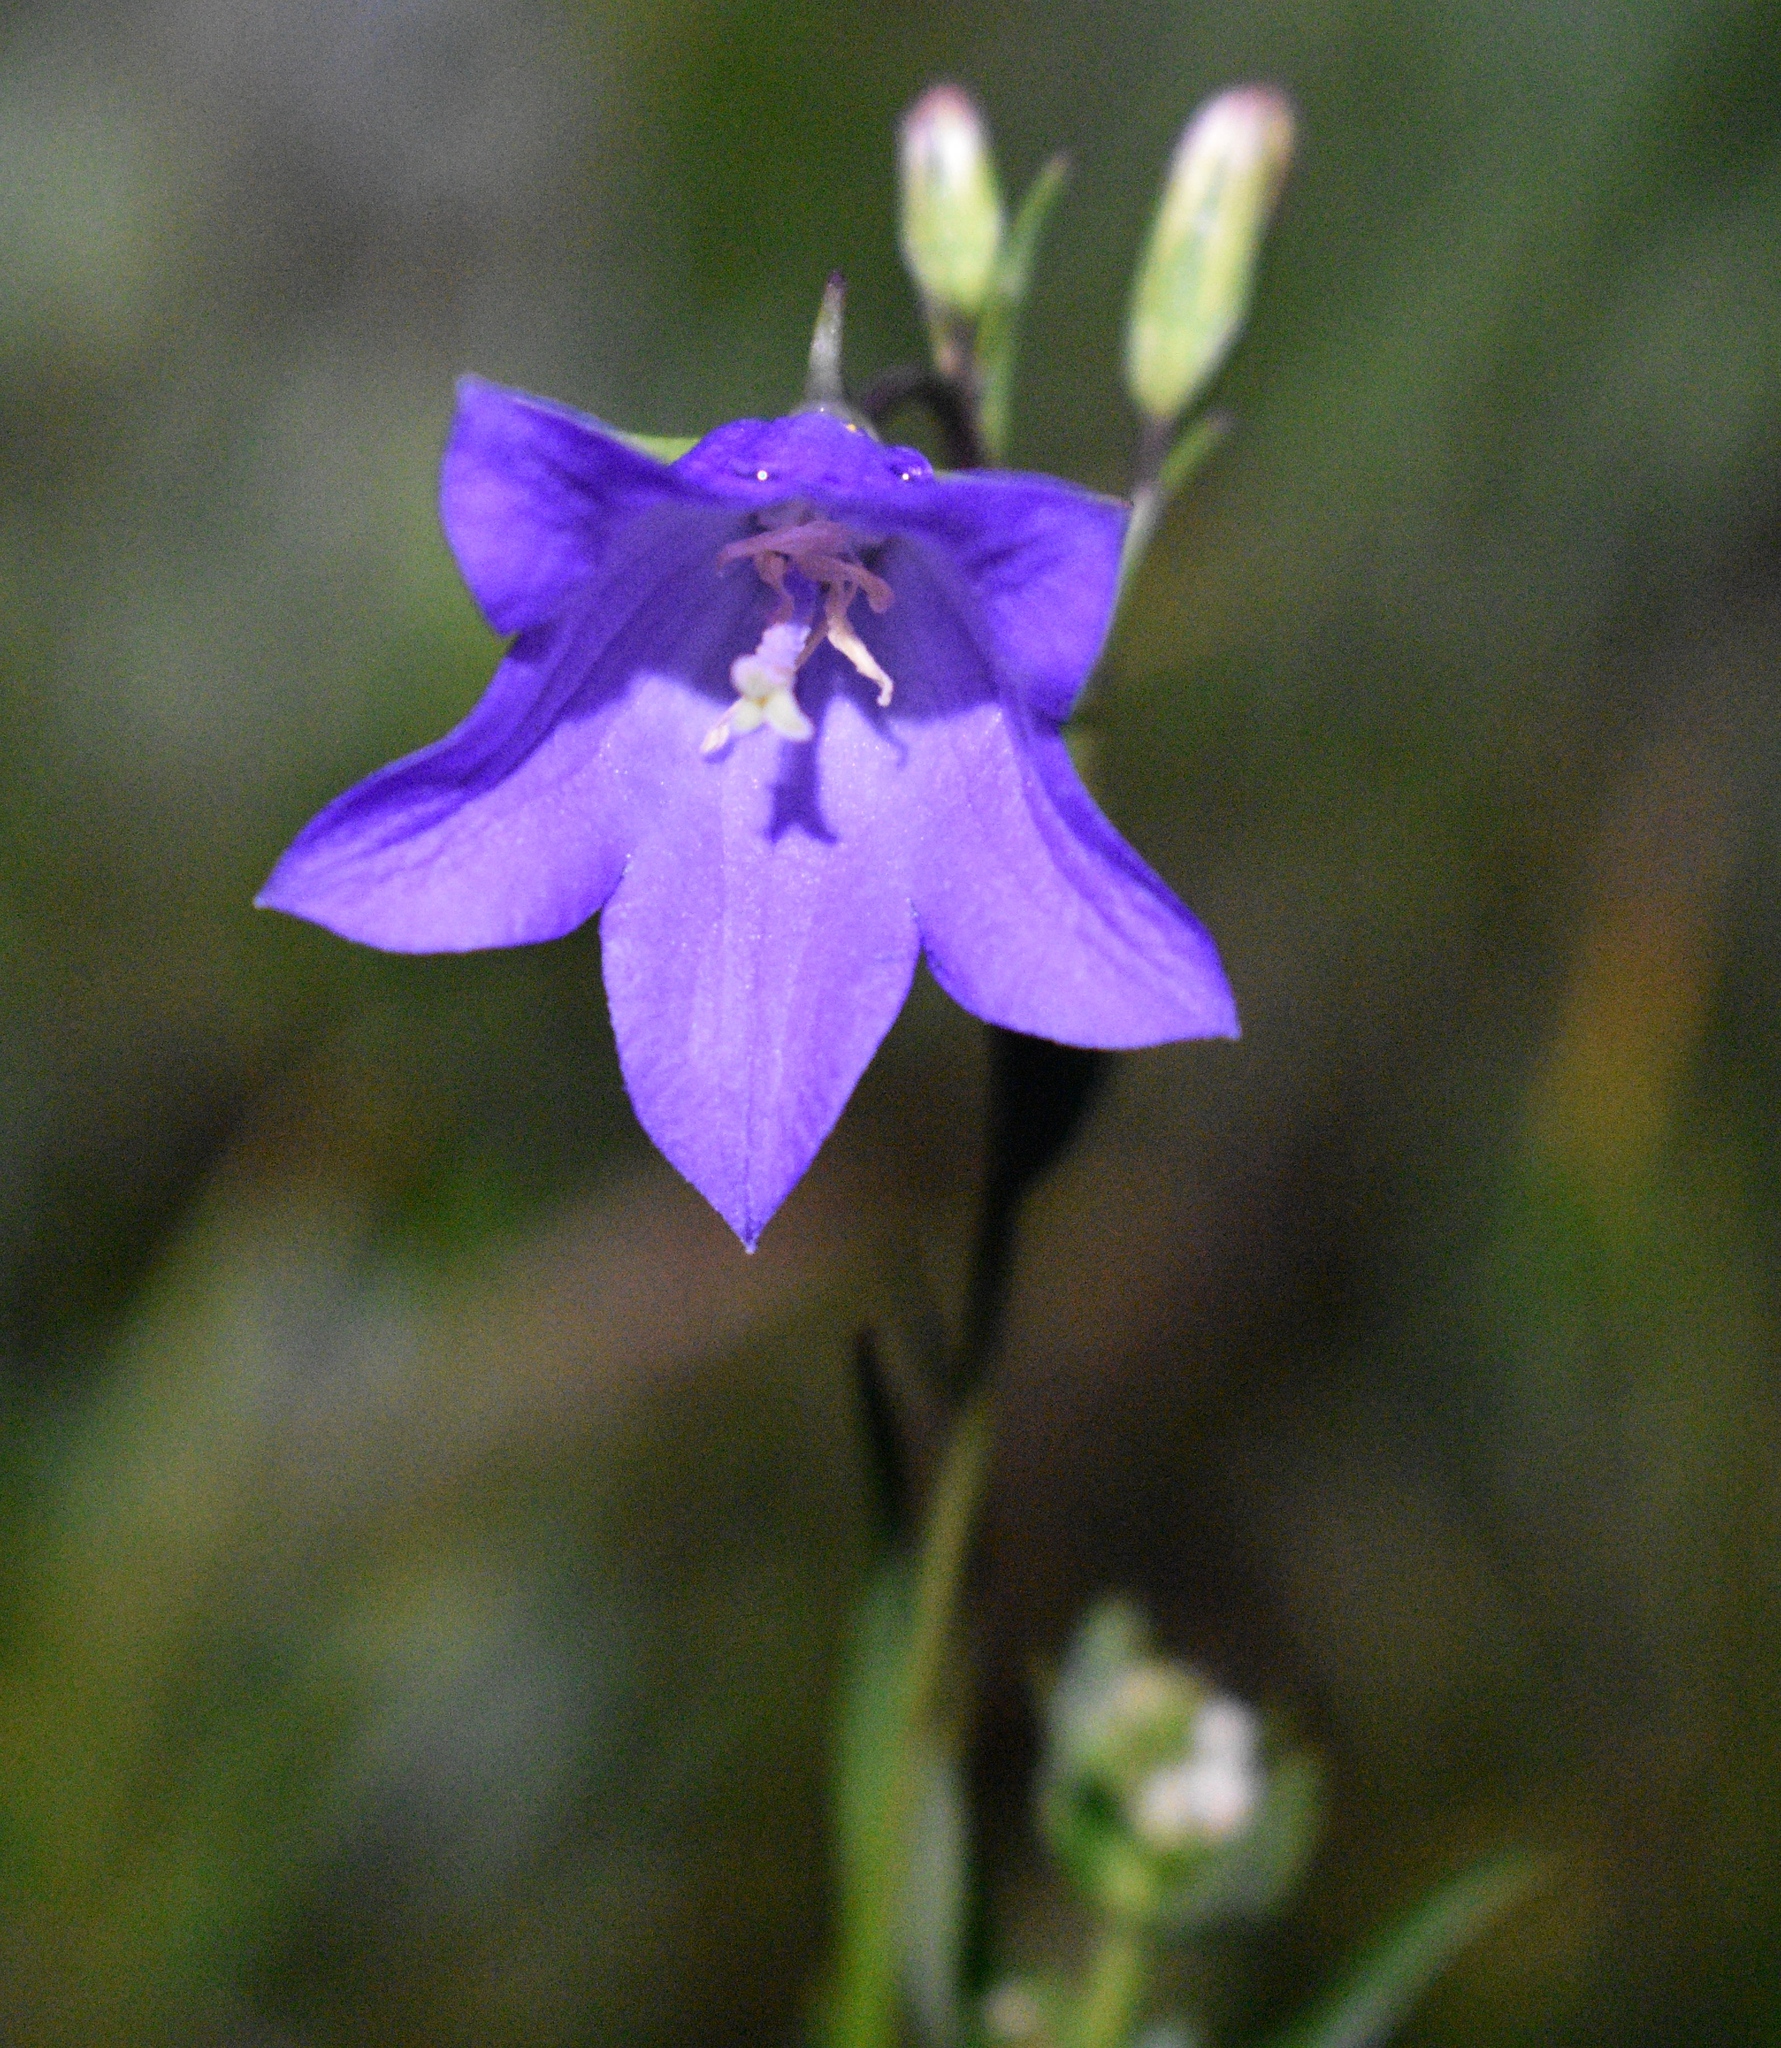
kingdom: Plantae
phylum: Tracheophyta
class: Magnoliopsida
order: Asterales
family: Campanulaceae
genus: Campanula
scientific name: Campanula petiolata
